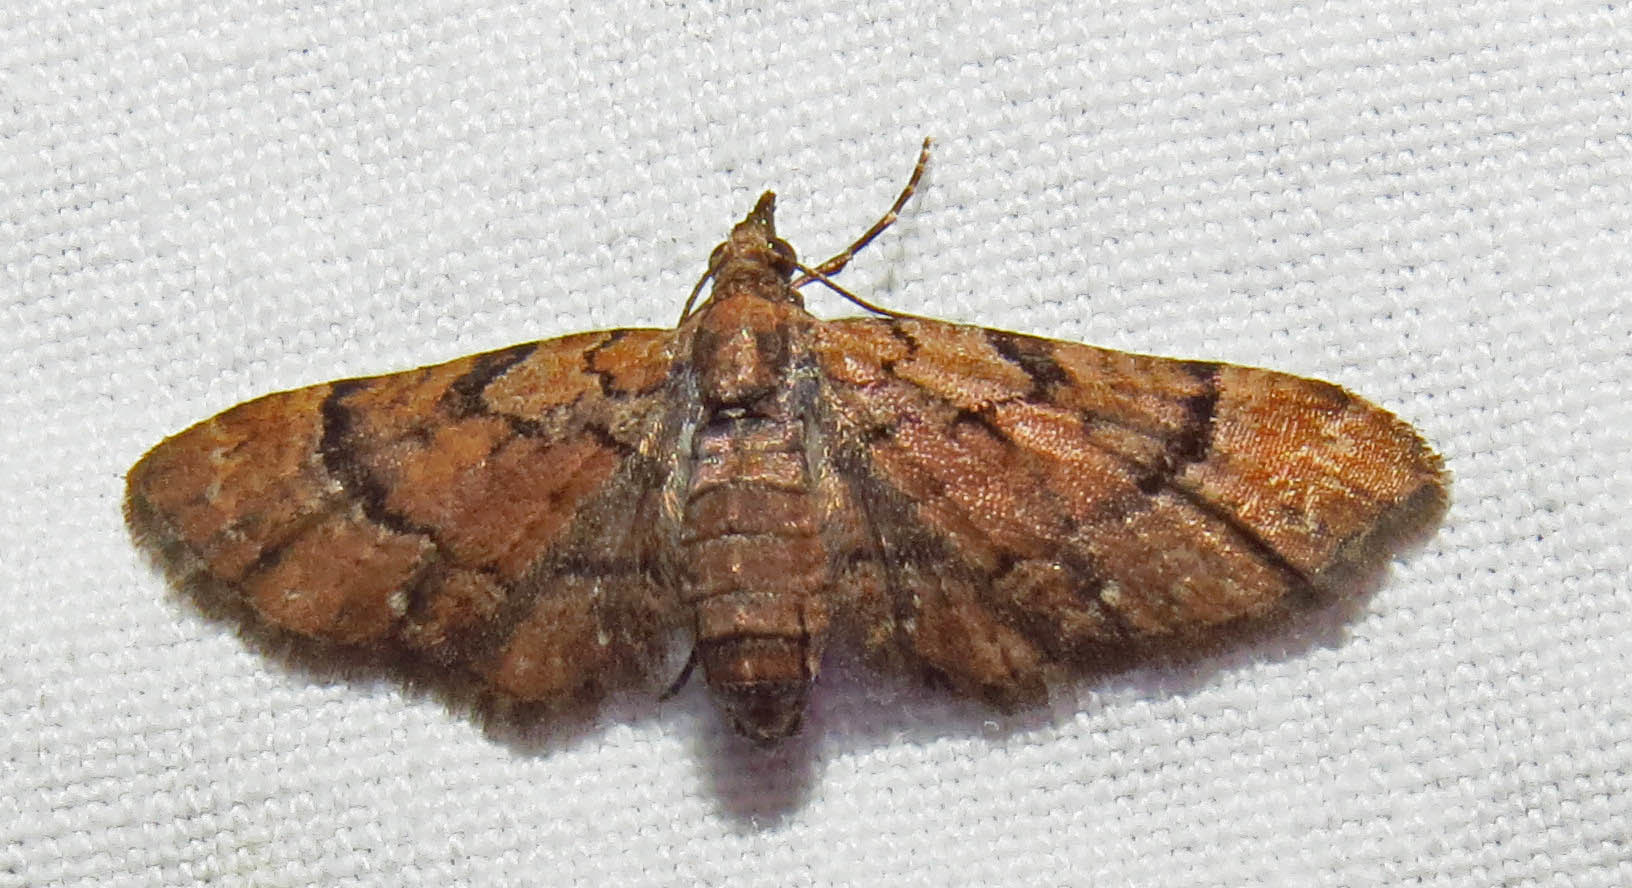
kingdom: Animalia
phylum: Arthropoda
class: Insecta
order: Lepidoptera
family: Geometridae
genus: Eupithecia
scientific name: Eupithecia peckorum
